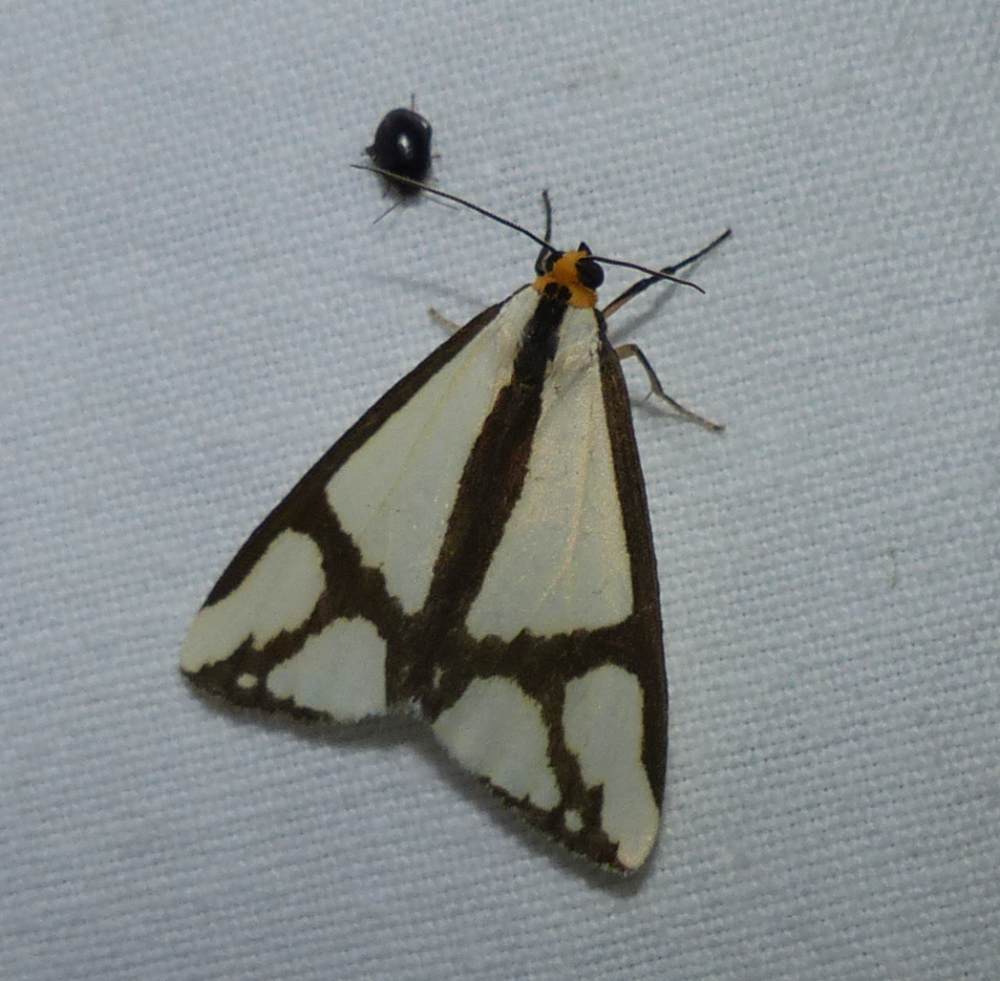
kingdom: Animalia
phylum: Arthropoda
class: Insecta
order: Lepidoptera
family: Erebidae
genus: Haploa
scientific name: Haploa contigua
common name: Neighbor moth
